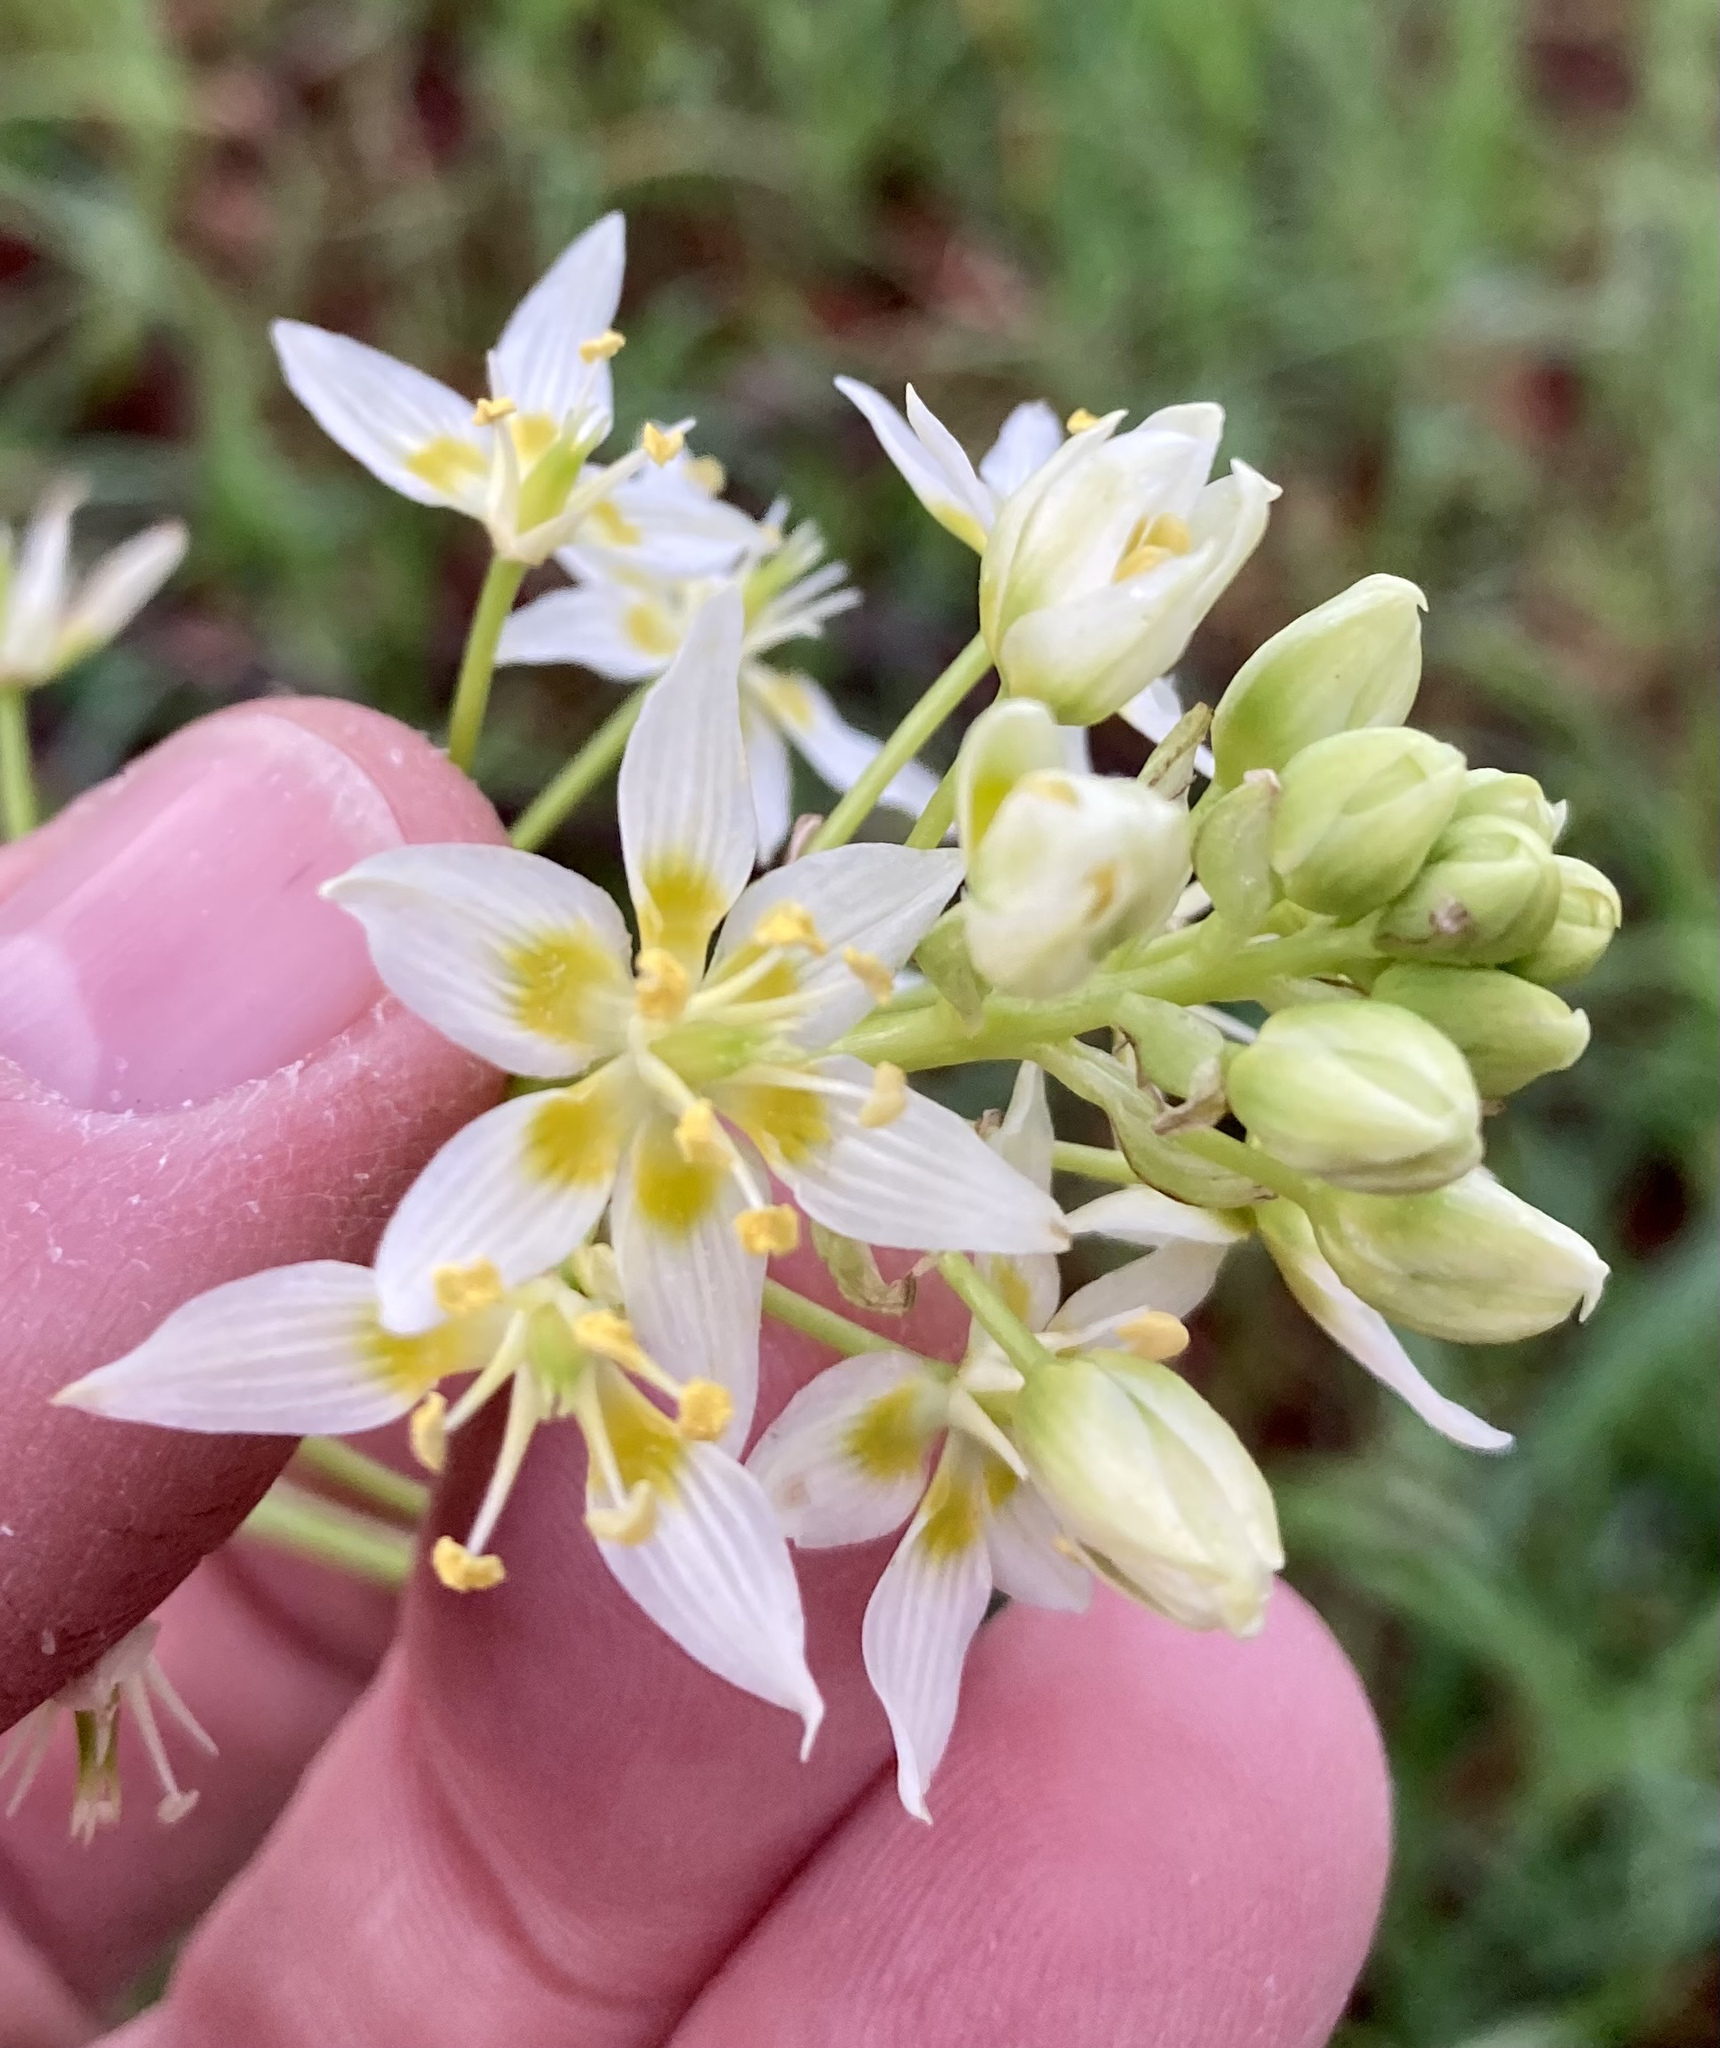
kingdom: Plantae
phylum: Tracheophyta
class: Liliopsida
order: Liliales
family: Melanthiaceae
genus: Toxicoscordion
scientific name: Toxicoscordion fremontii
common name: Fremont's death camas
